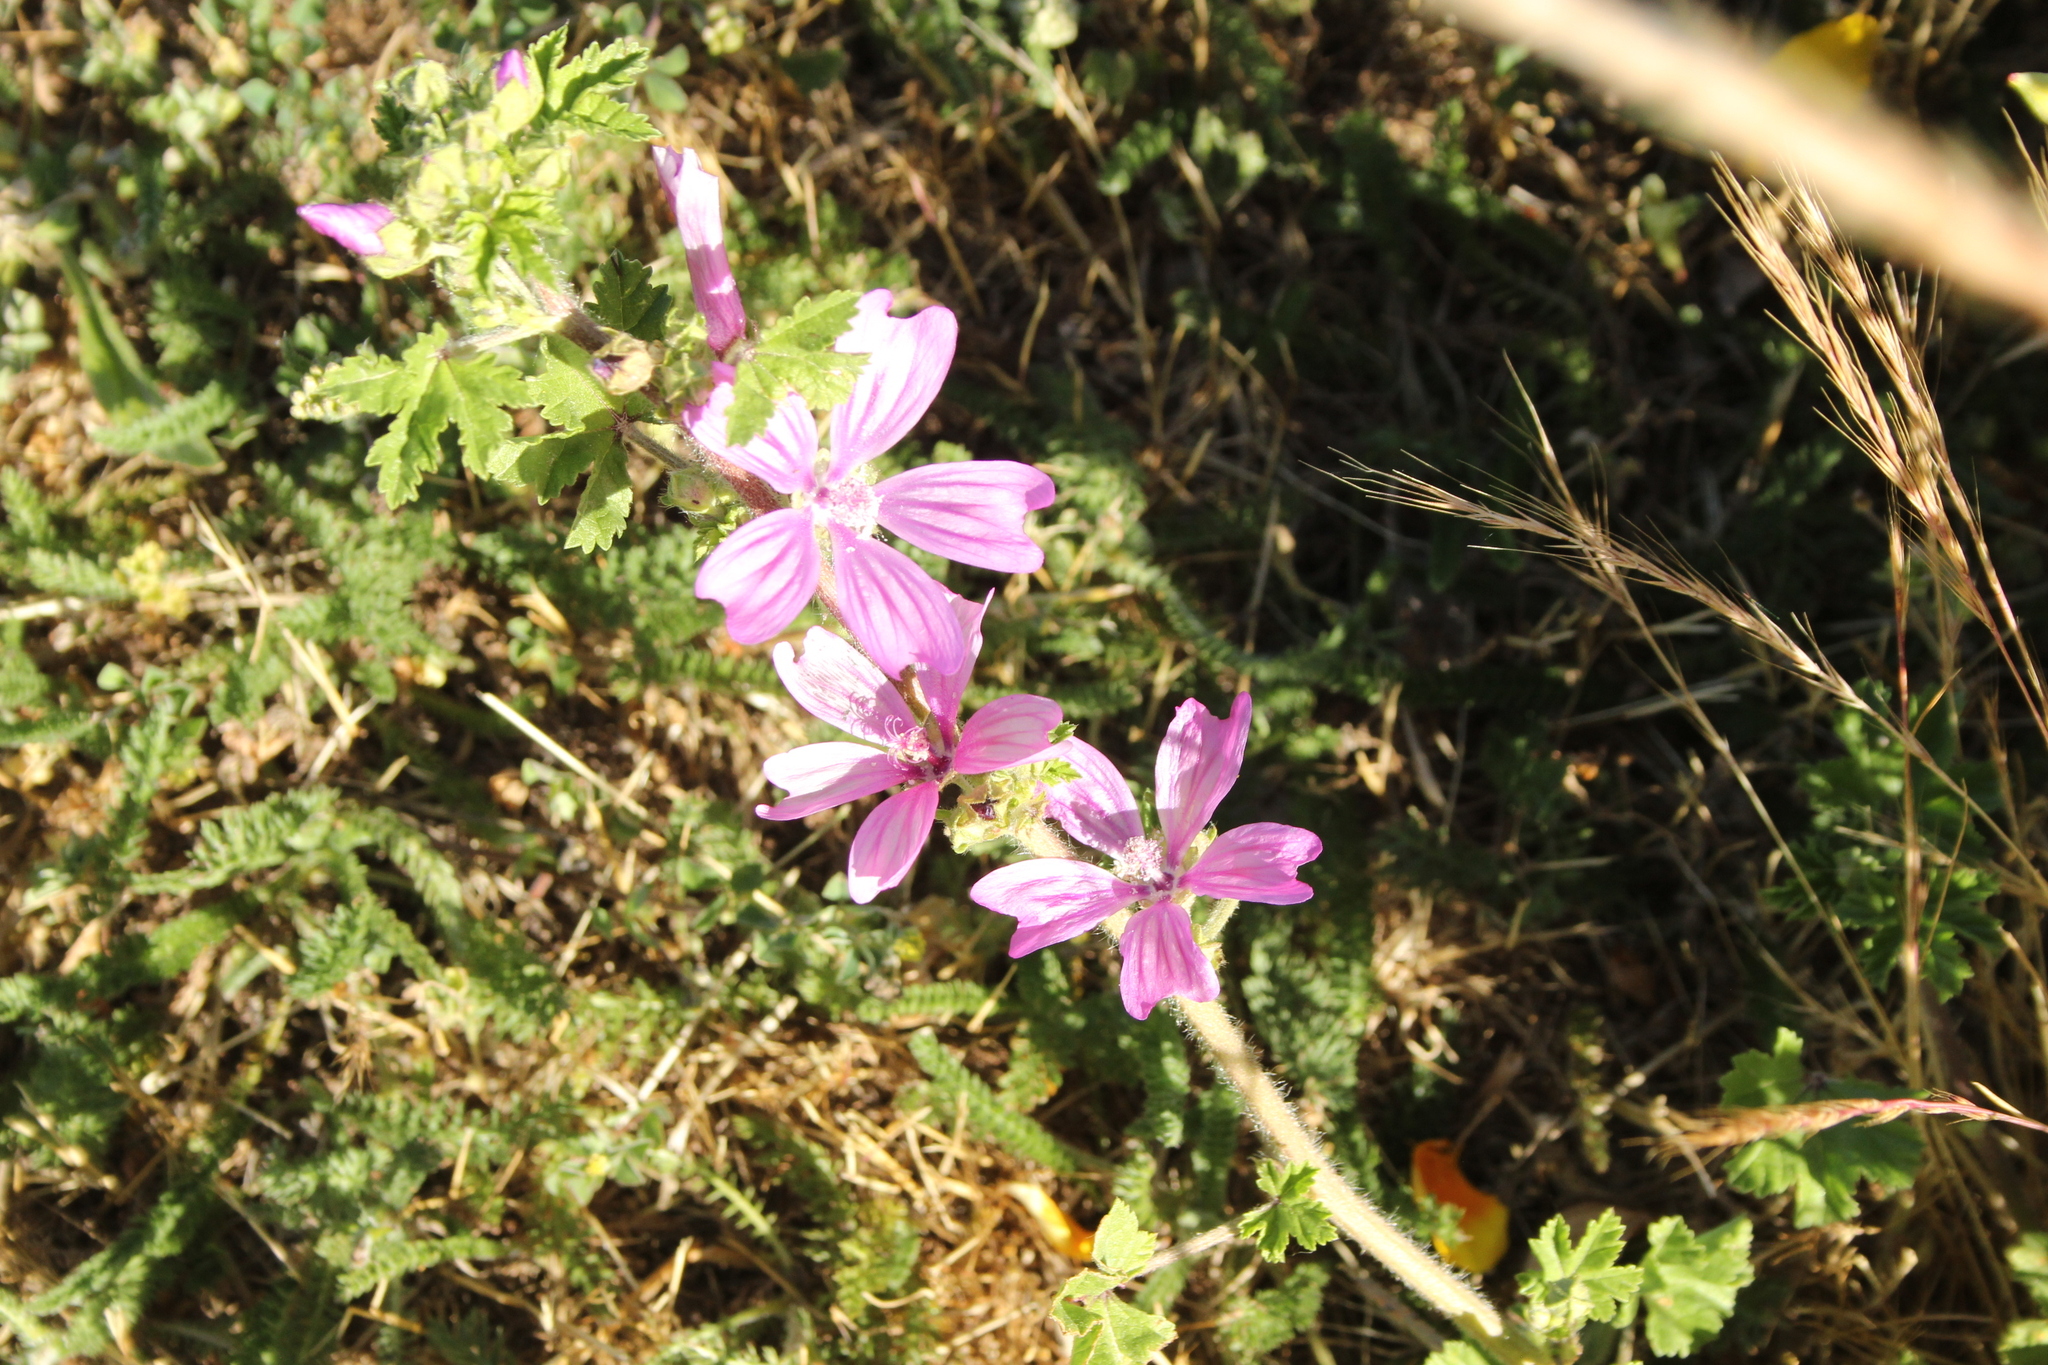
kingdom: Plantae
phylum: Tracheophyta
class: Magnoliopsida
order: Malvales
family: Malvaceae
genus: Malva
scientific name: Malva sylvestris
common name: Common mallow
